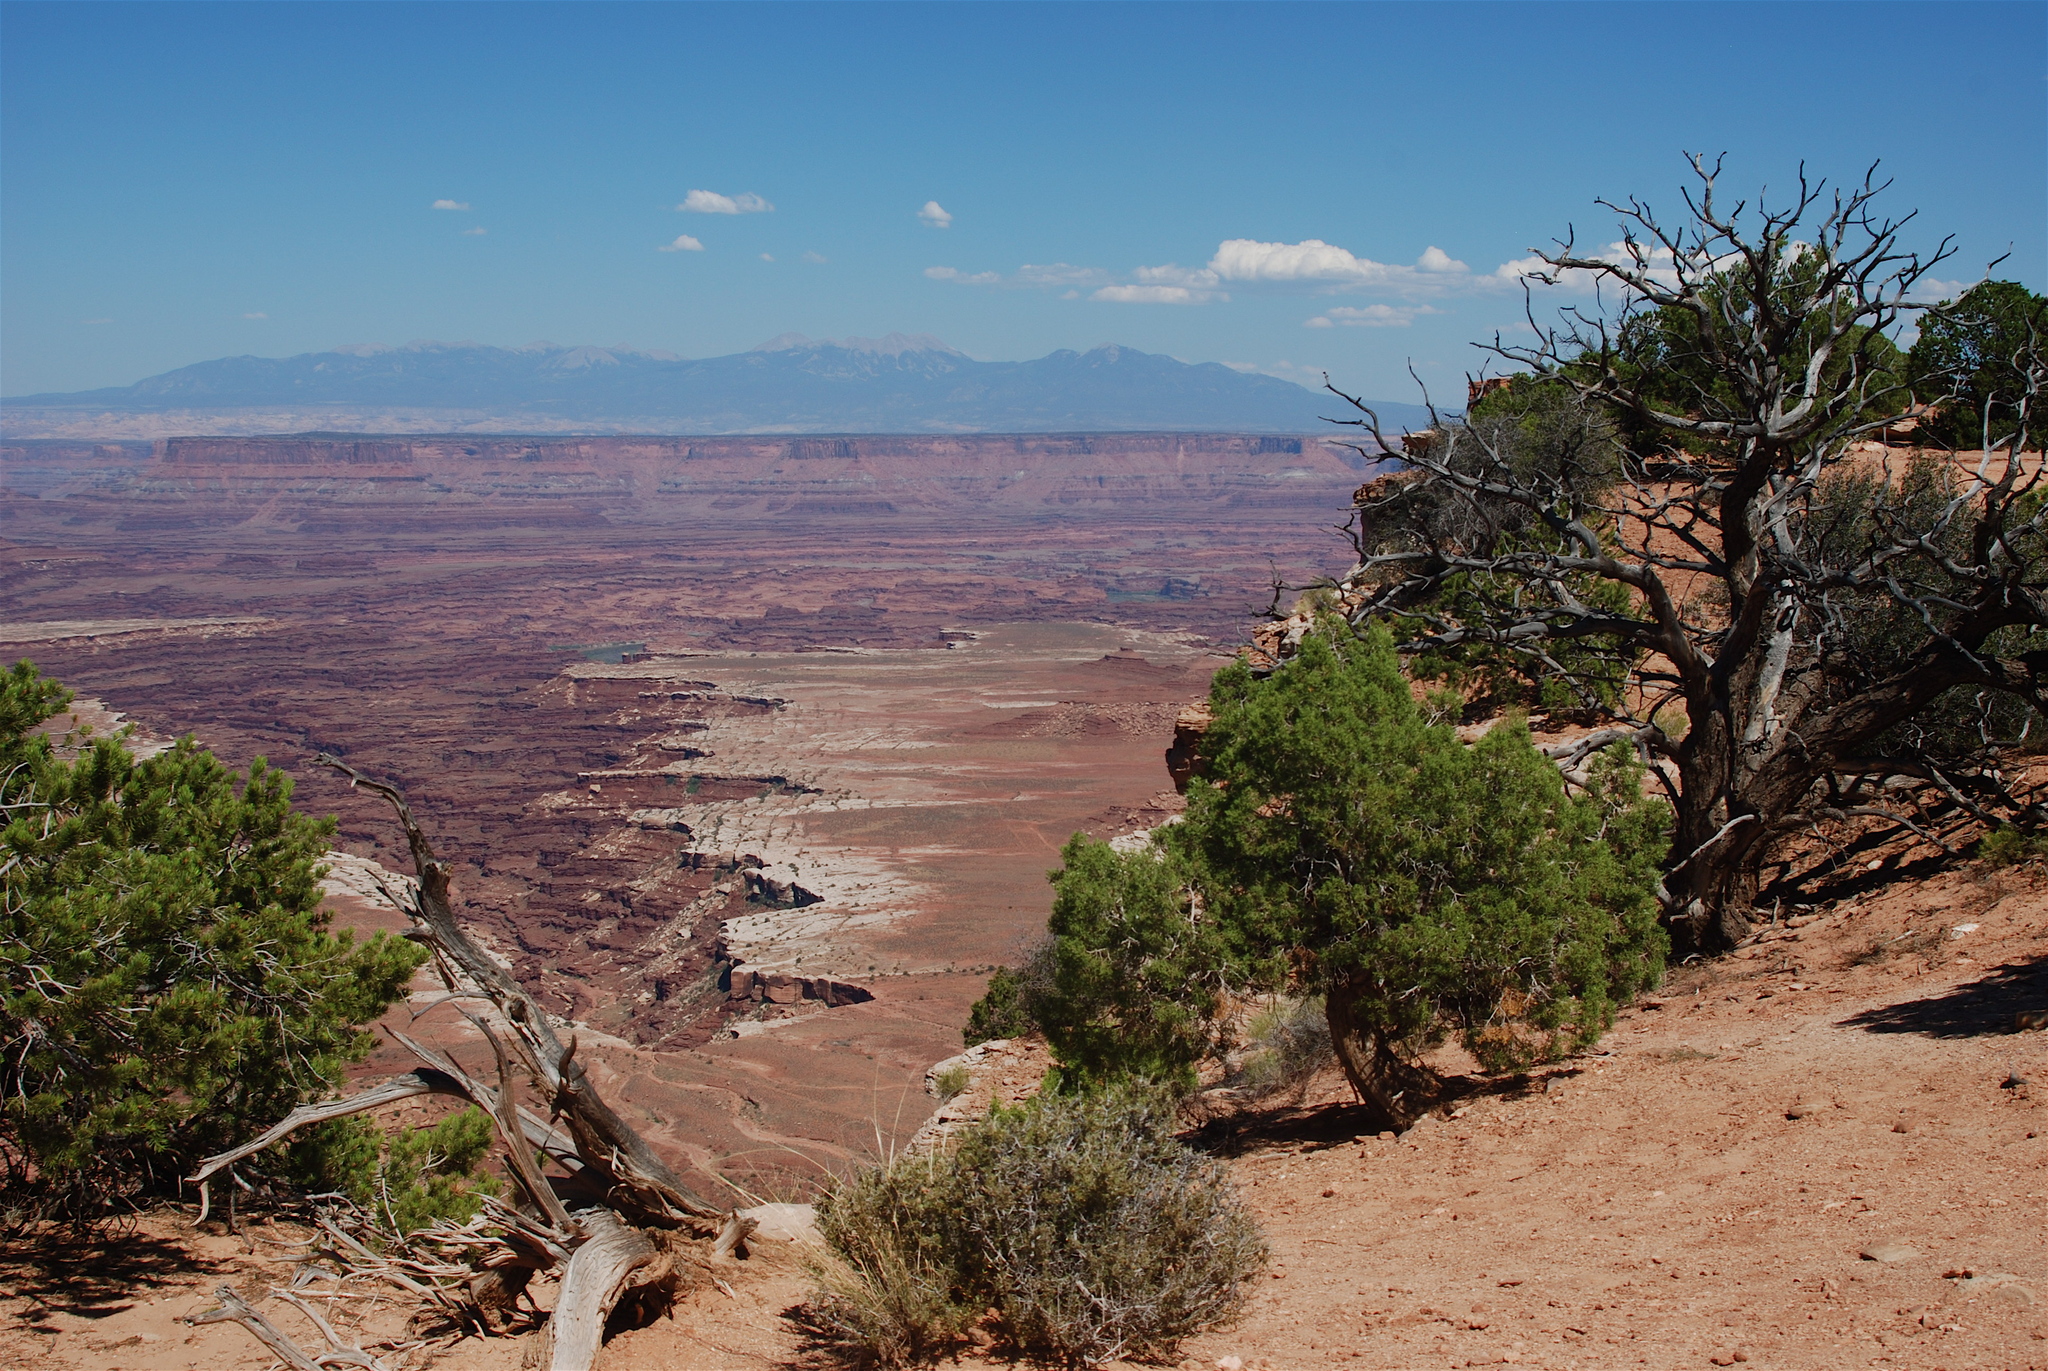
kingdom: Plantae
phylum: Tracheophyta
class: Pinopsida
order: Pinales
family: Cupressaceae
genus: Juniperus
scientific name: Juniperus osteosperma
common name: Utah juniper
